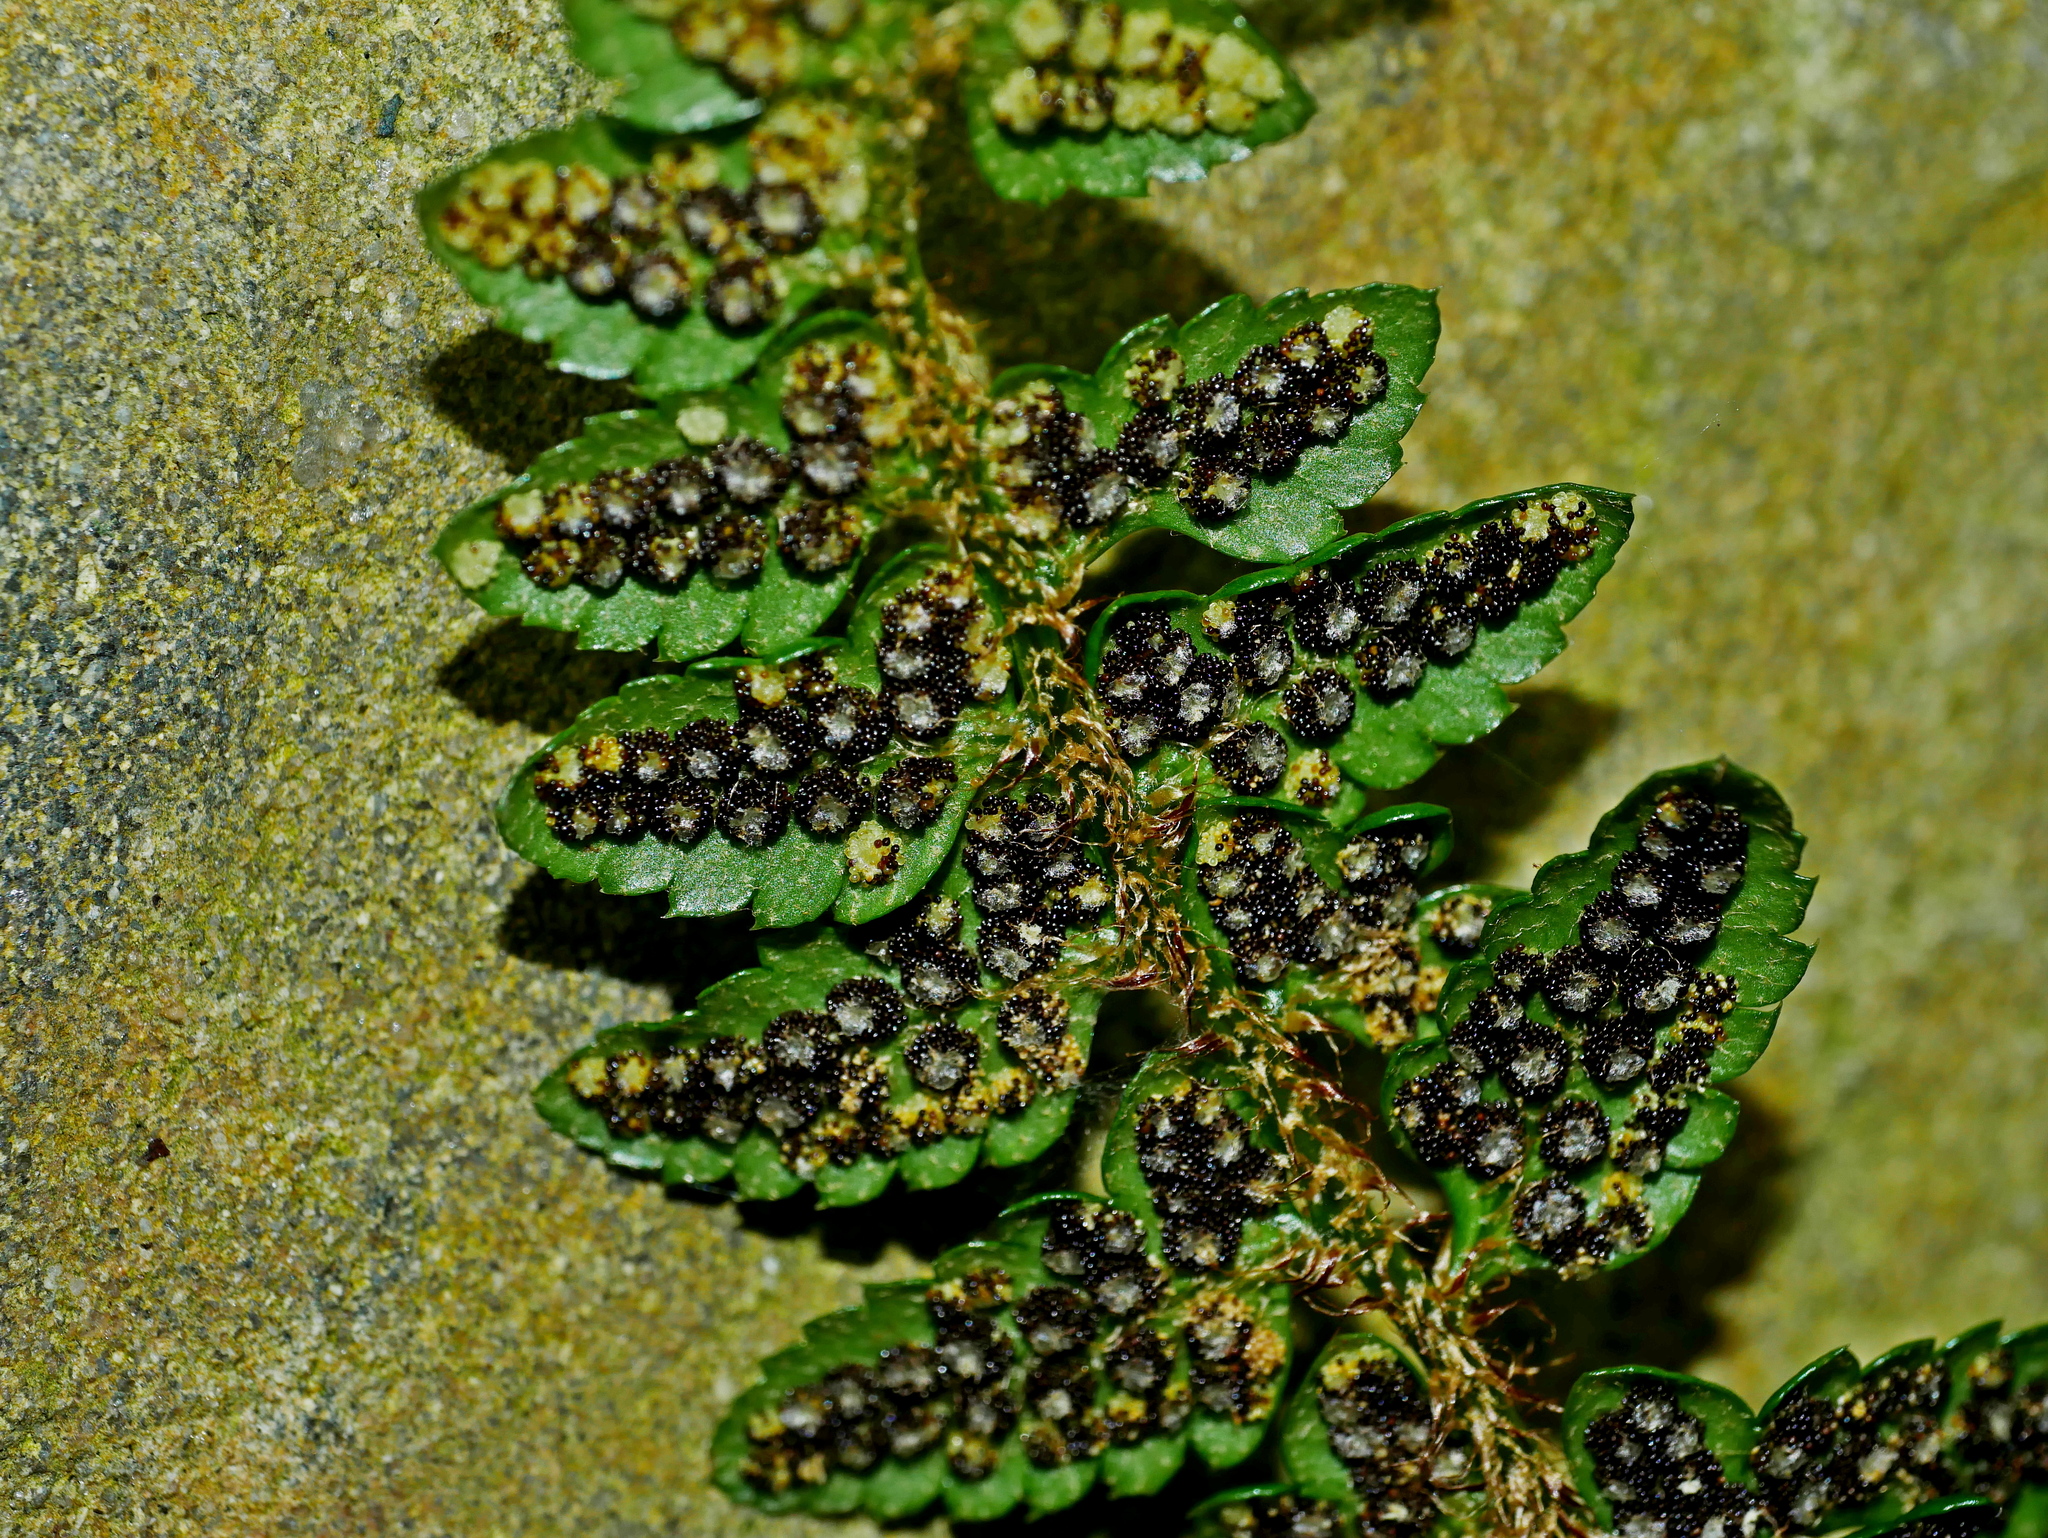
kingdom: Plantae
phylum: Tracheophyta
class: Polypodiopsida
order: Polypodiales
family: Dryopteridaceae
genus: Polystichum
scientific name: Polystichum prionolepis
